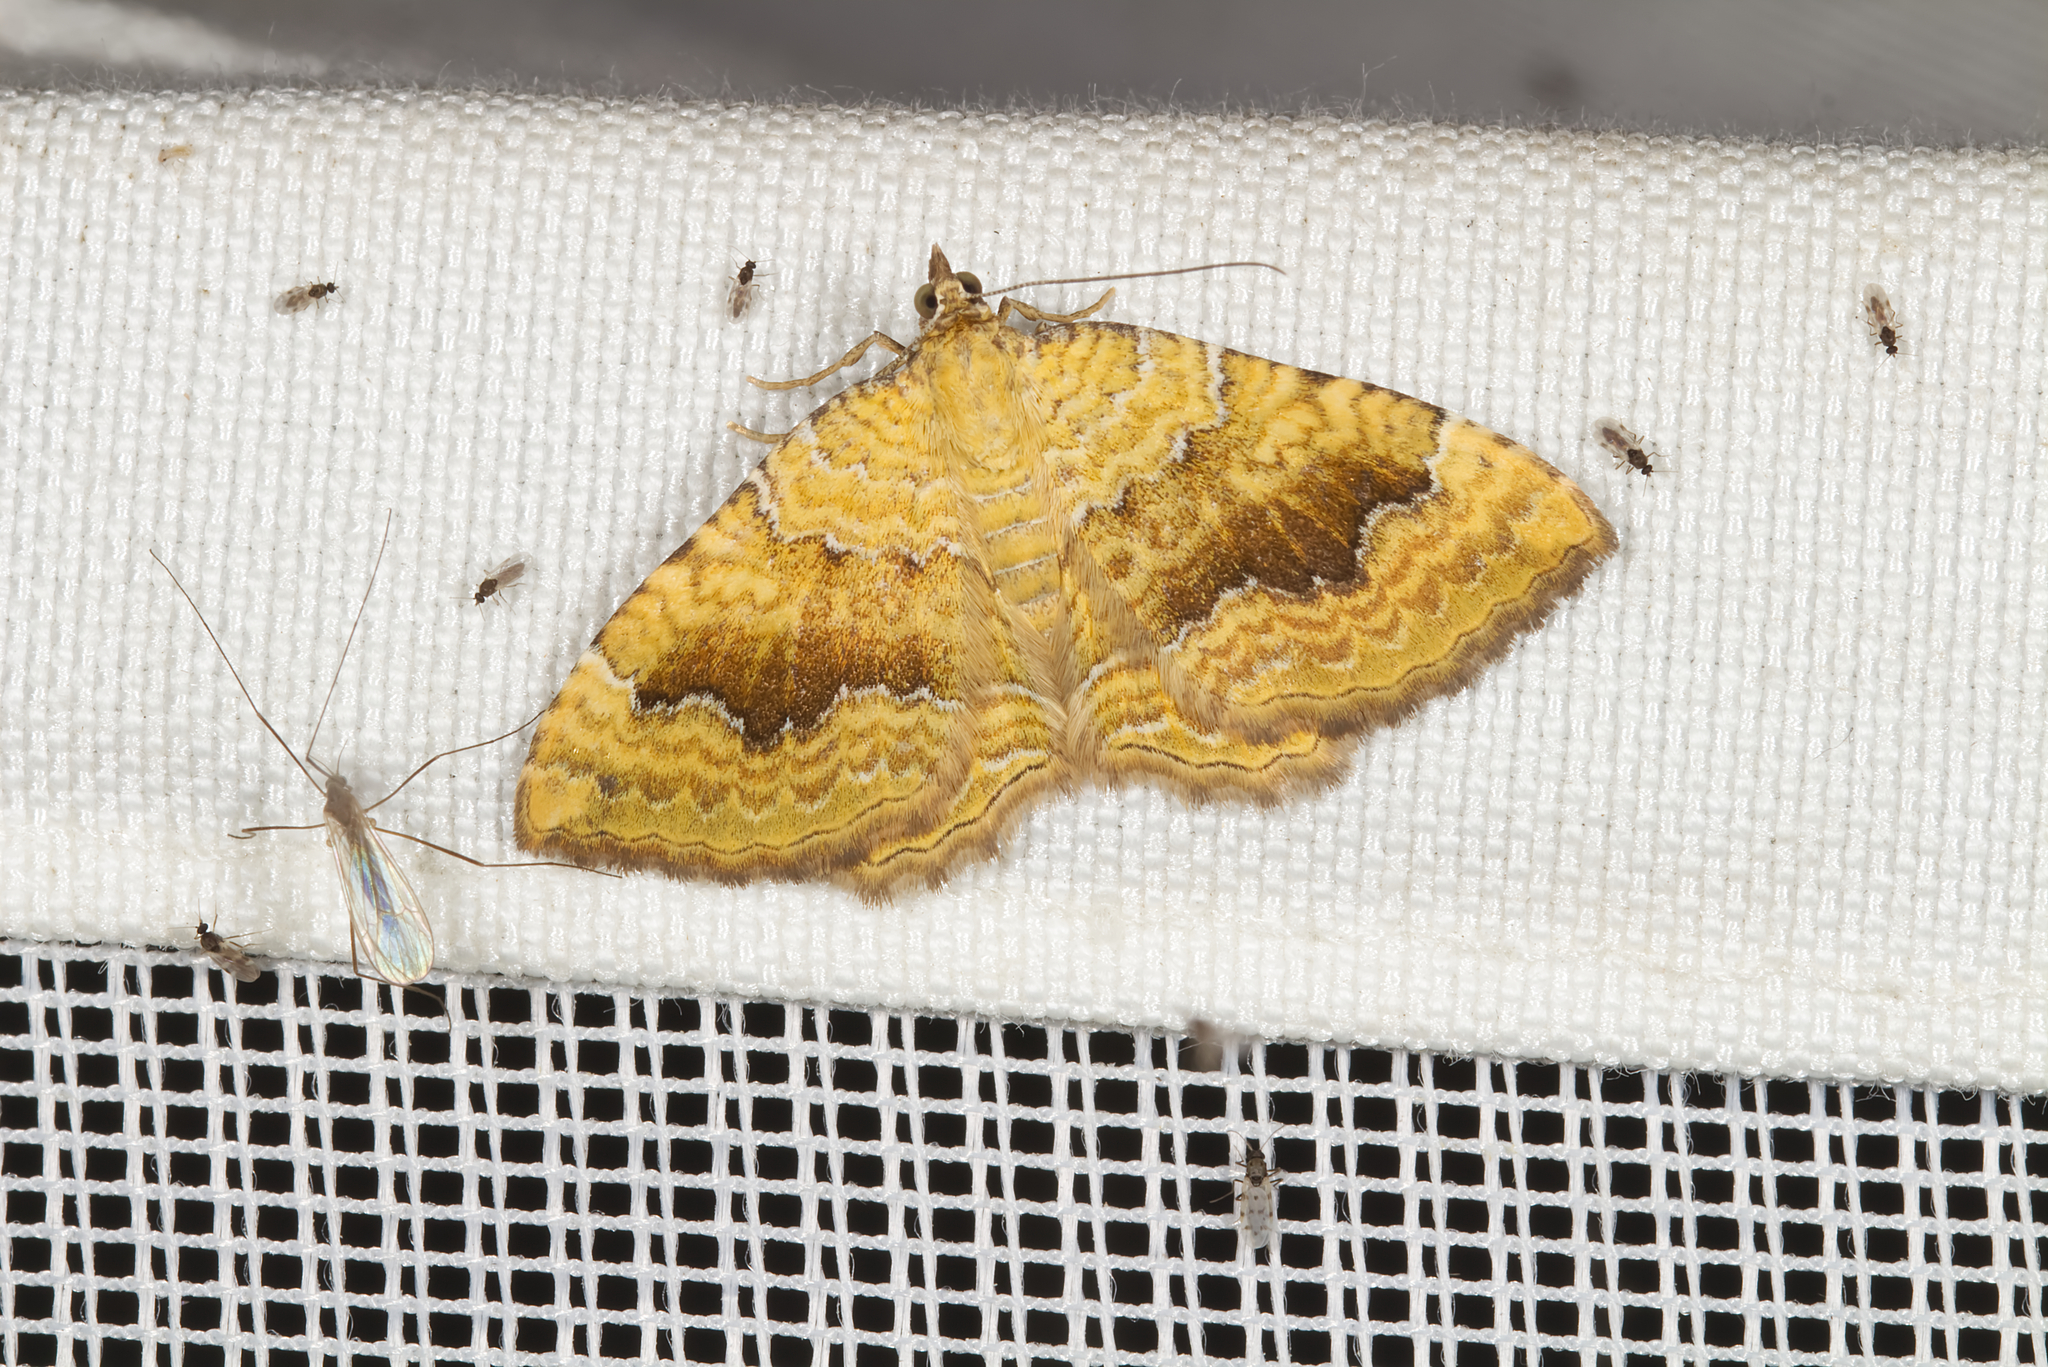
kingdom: Animalia
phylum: Arthropoda
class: Insecta
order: Lepidoptera
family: Geometridae
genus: Camptogramma
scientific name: Camptogramma bilineata
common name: Yellow shell
